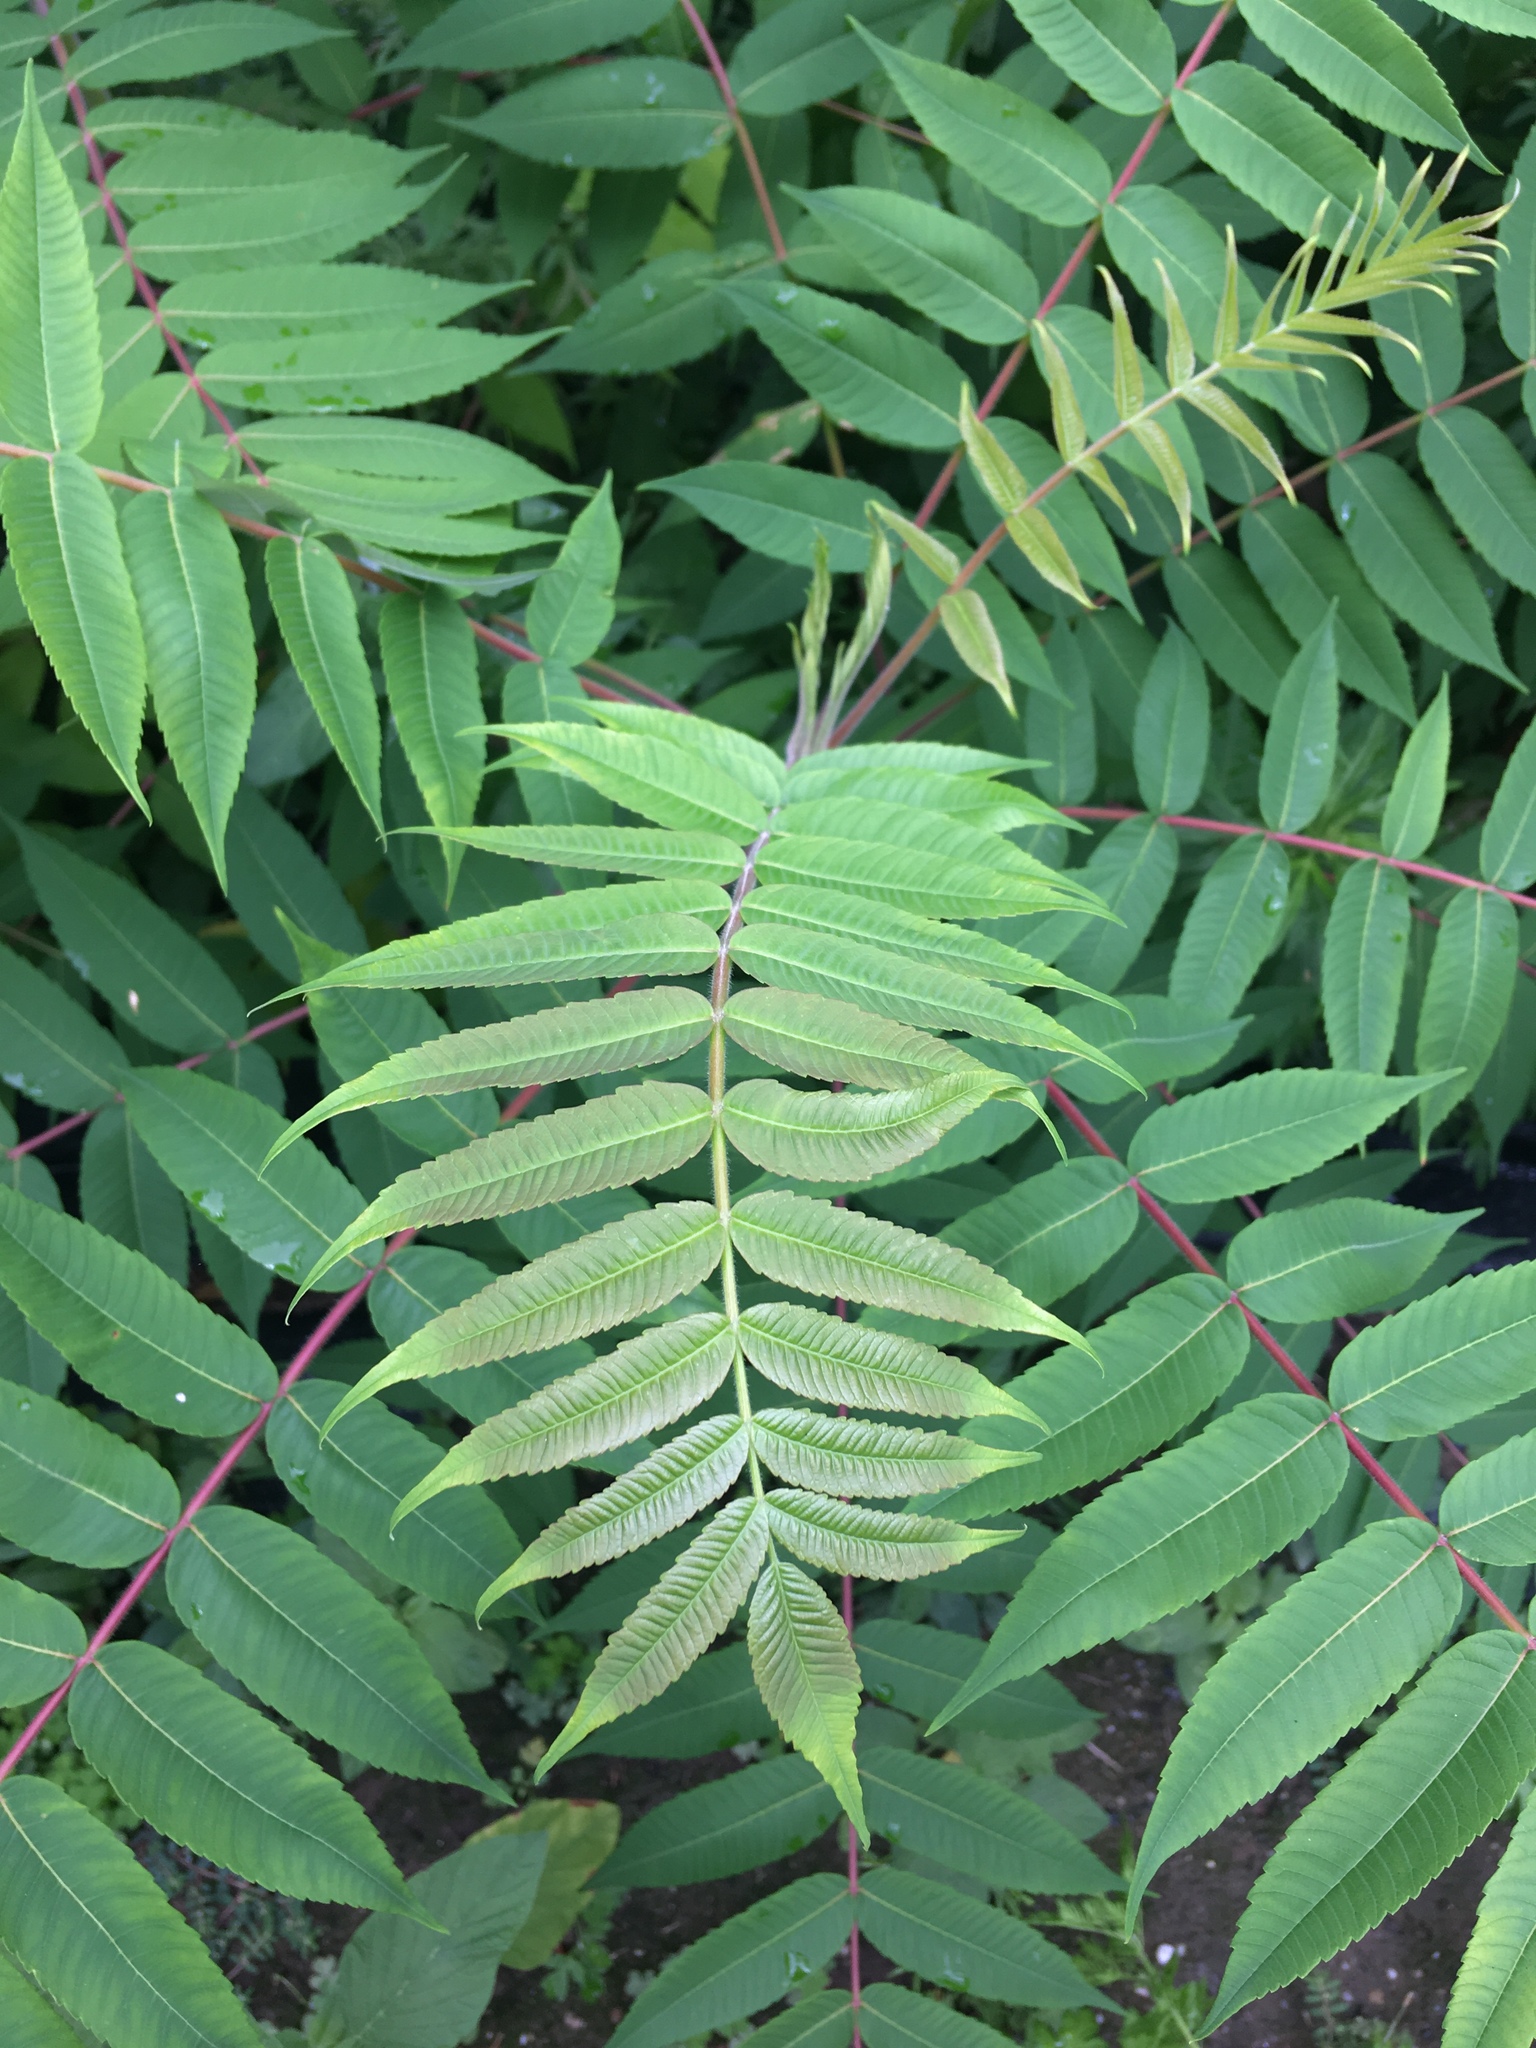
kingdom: Plantae
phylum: Tracheophyta
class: Magnoliopsida
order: Sapindales
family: Anacardiaceae
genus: Rhus
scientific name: Rhus typhina
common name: Staghorn sumac
